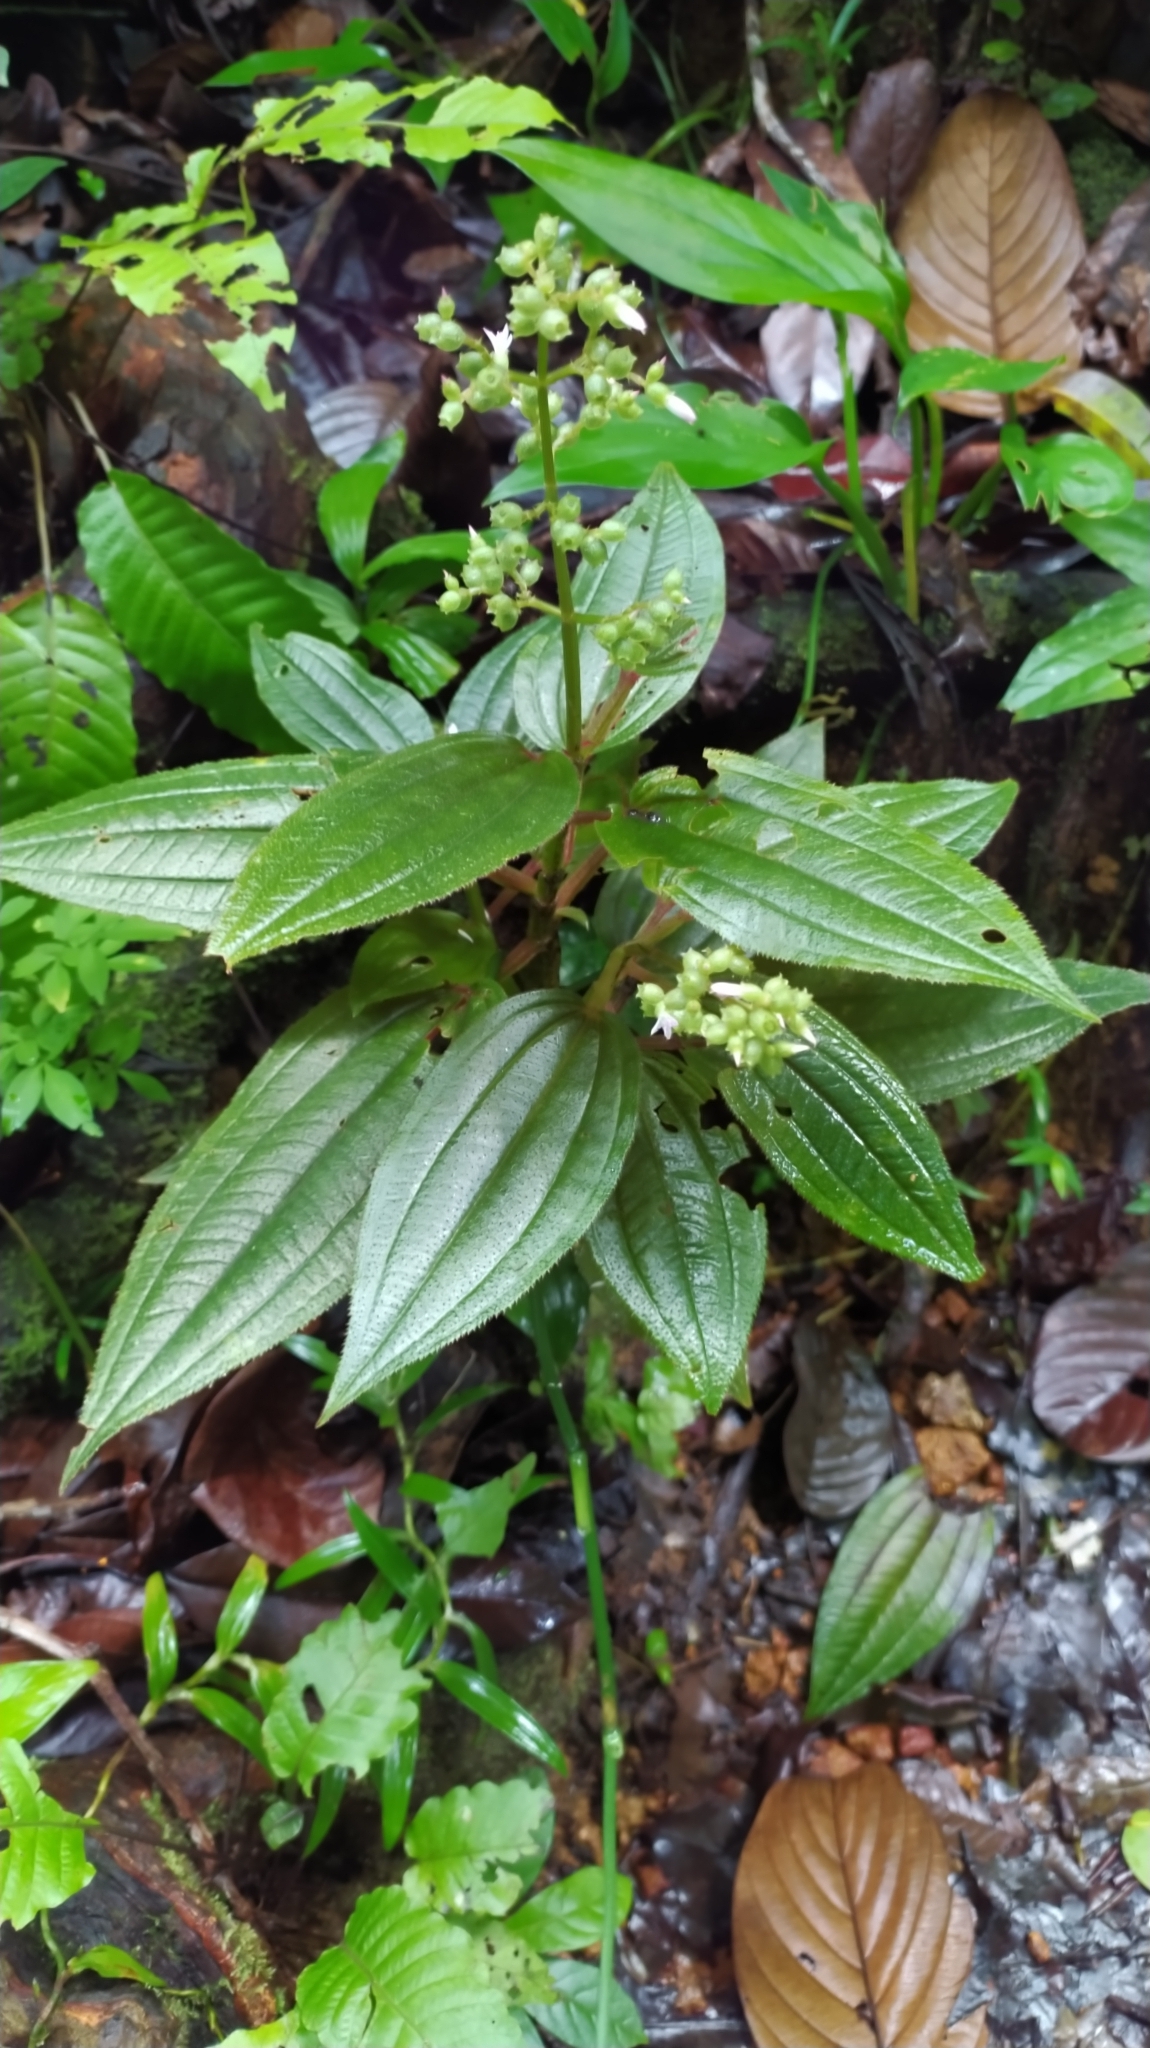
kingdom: Plantae
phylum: Tracheophyta
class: Magnoliopsida
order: Myrtales
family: Melastomataceae
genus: Aciotis
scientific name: Aciotis purpurascens
